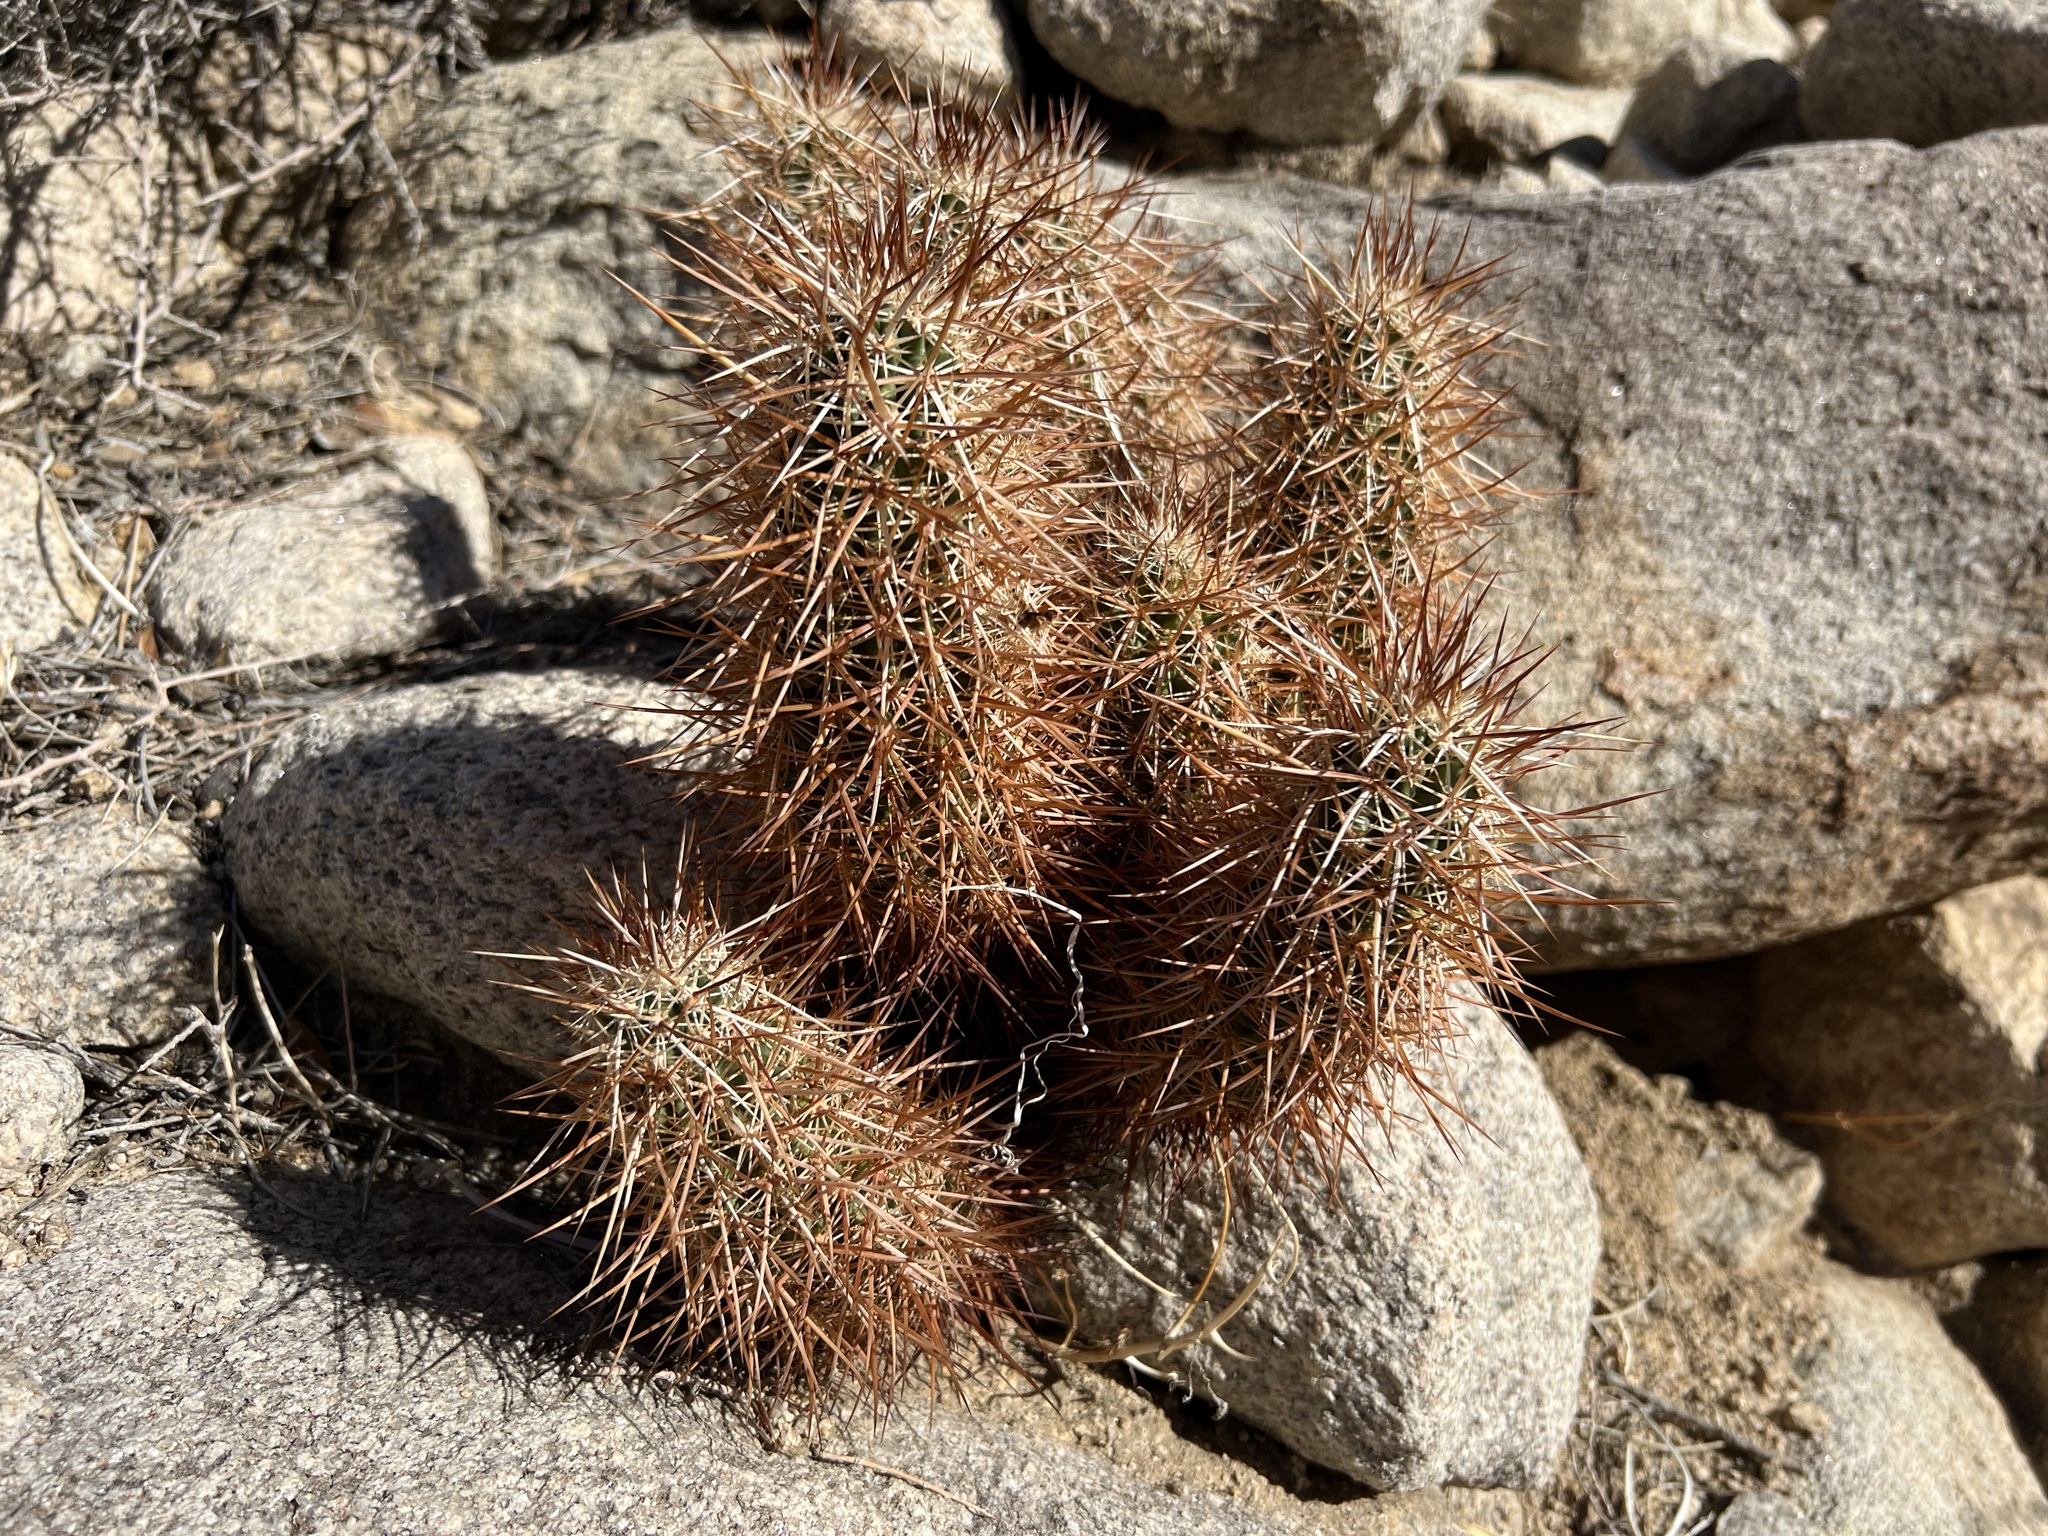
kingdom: Plantae
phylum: Tracheophyta
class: Magnoliopsida
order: Caryophyllales
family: Cactaceae
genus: Echinocereus
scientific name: Echinocereus engelmannii
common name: Engelmann's hedgehog cactus
